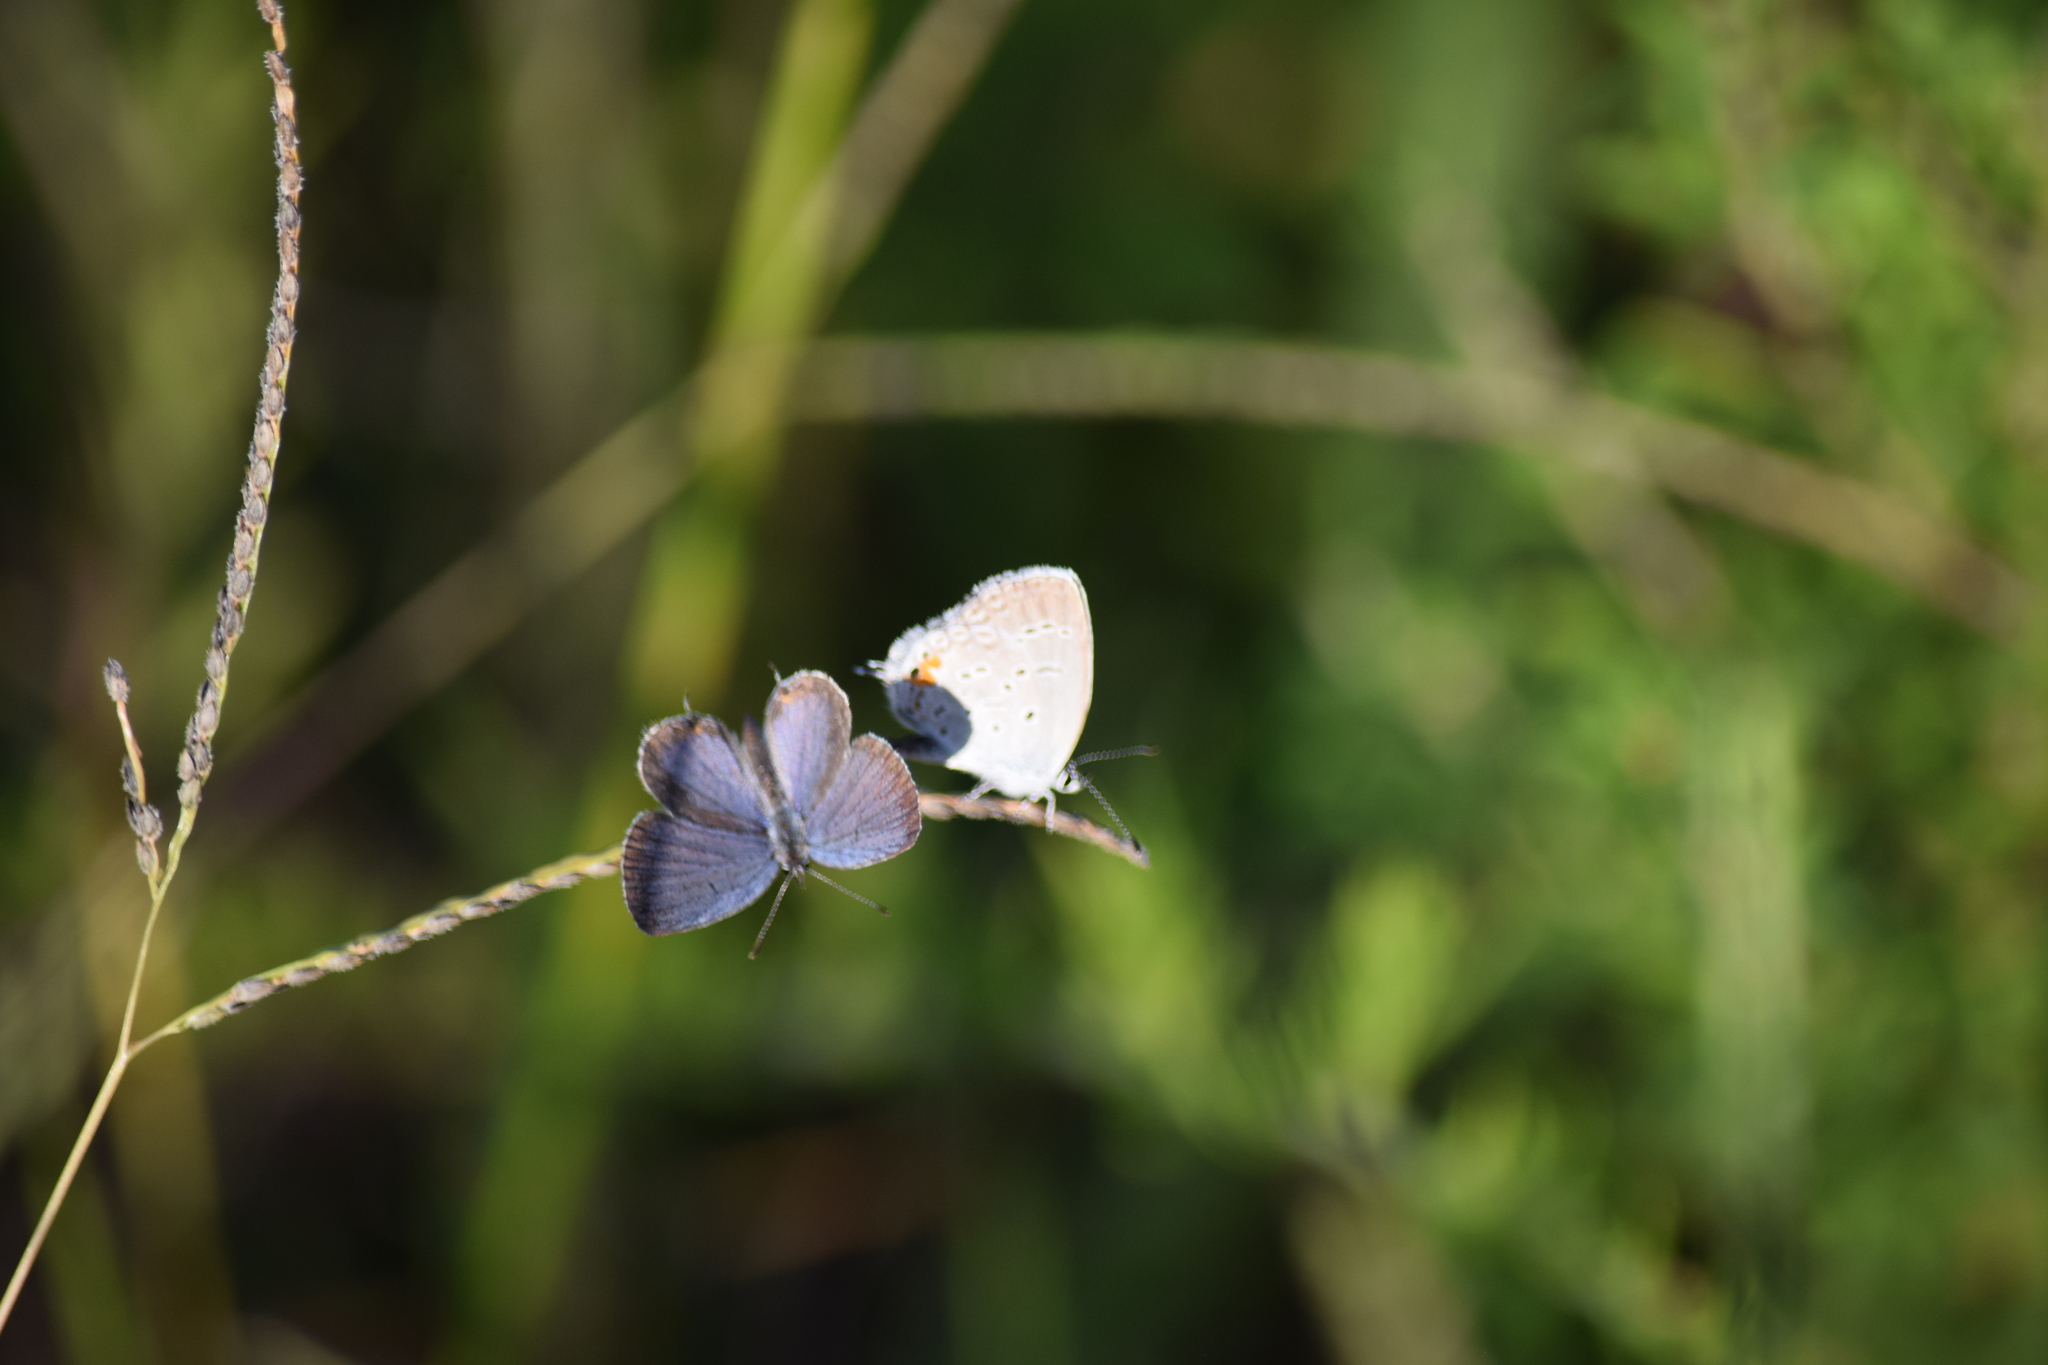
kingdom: Animalia
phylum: Arthropoda
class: Insecta
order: Lepidoptera
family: Lycaenidae
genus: Elkalyce
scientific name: Elkalyce comyntas
